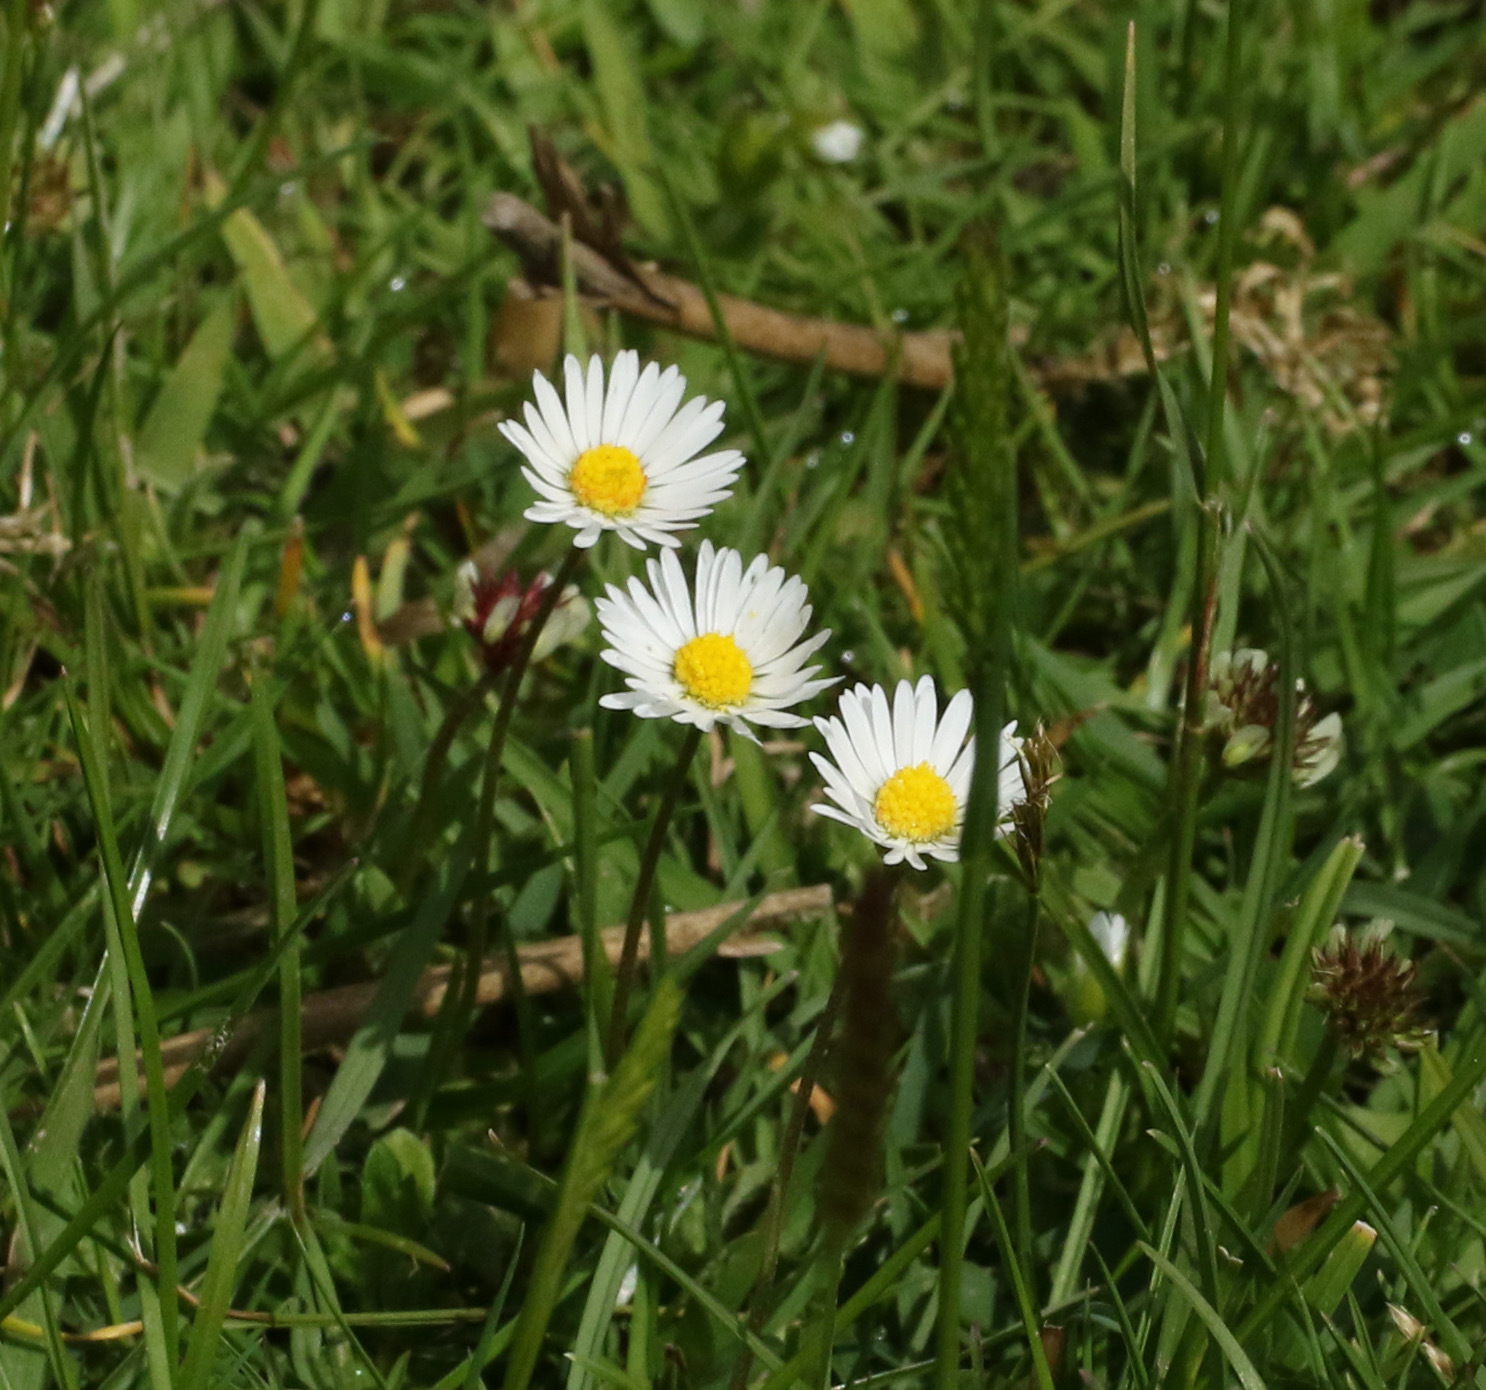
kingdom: Plantae
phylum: Tracheophyta
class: Magnoliopsida
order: Asterales
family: Asteraceae
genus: Bellis
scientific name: Bellis perennis
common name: Lawndaisy
